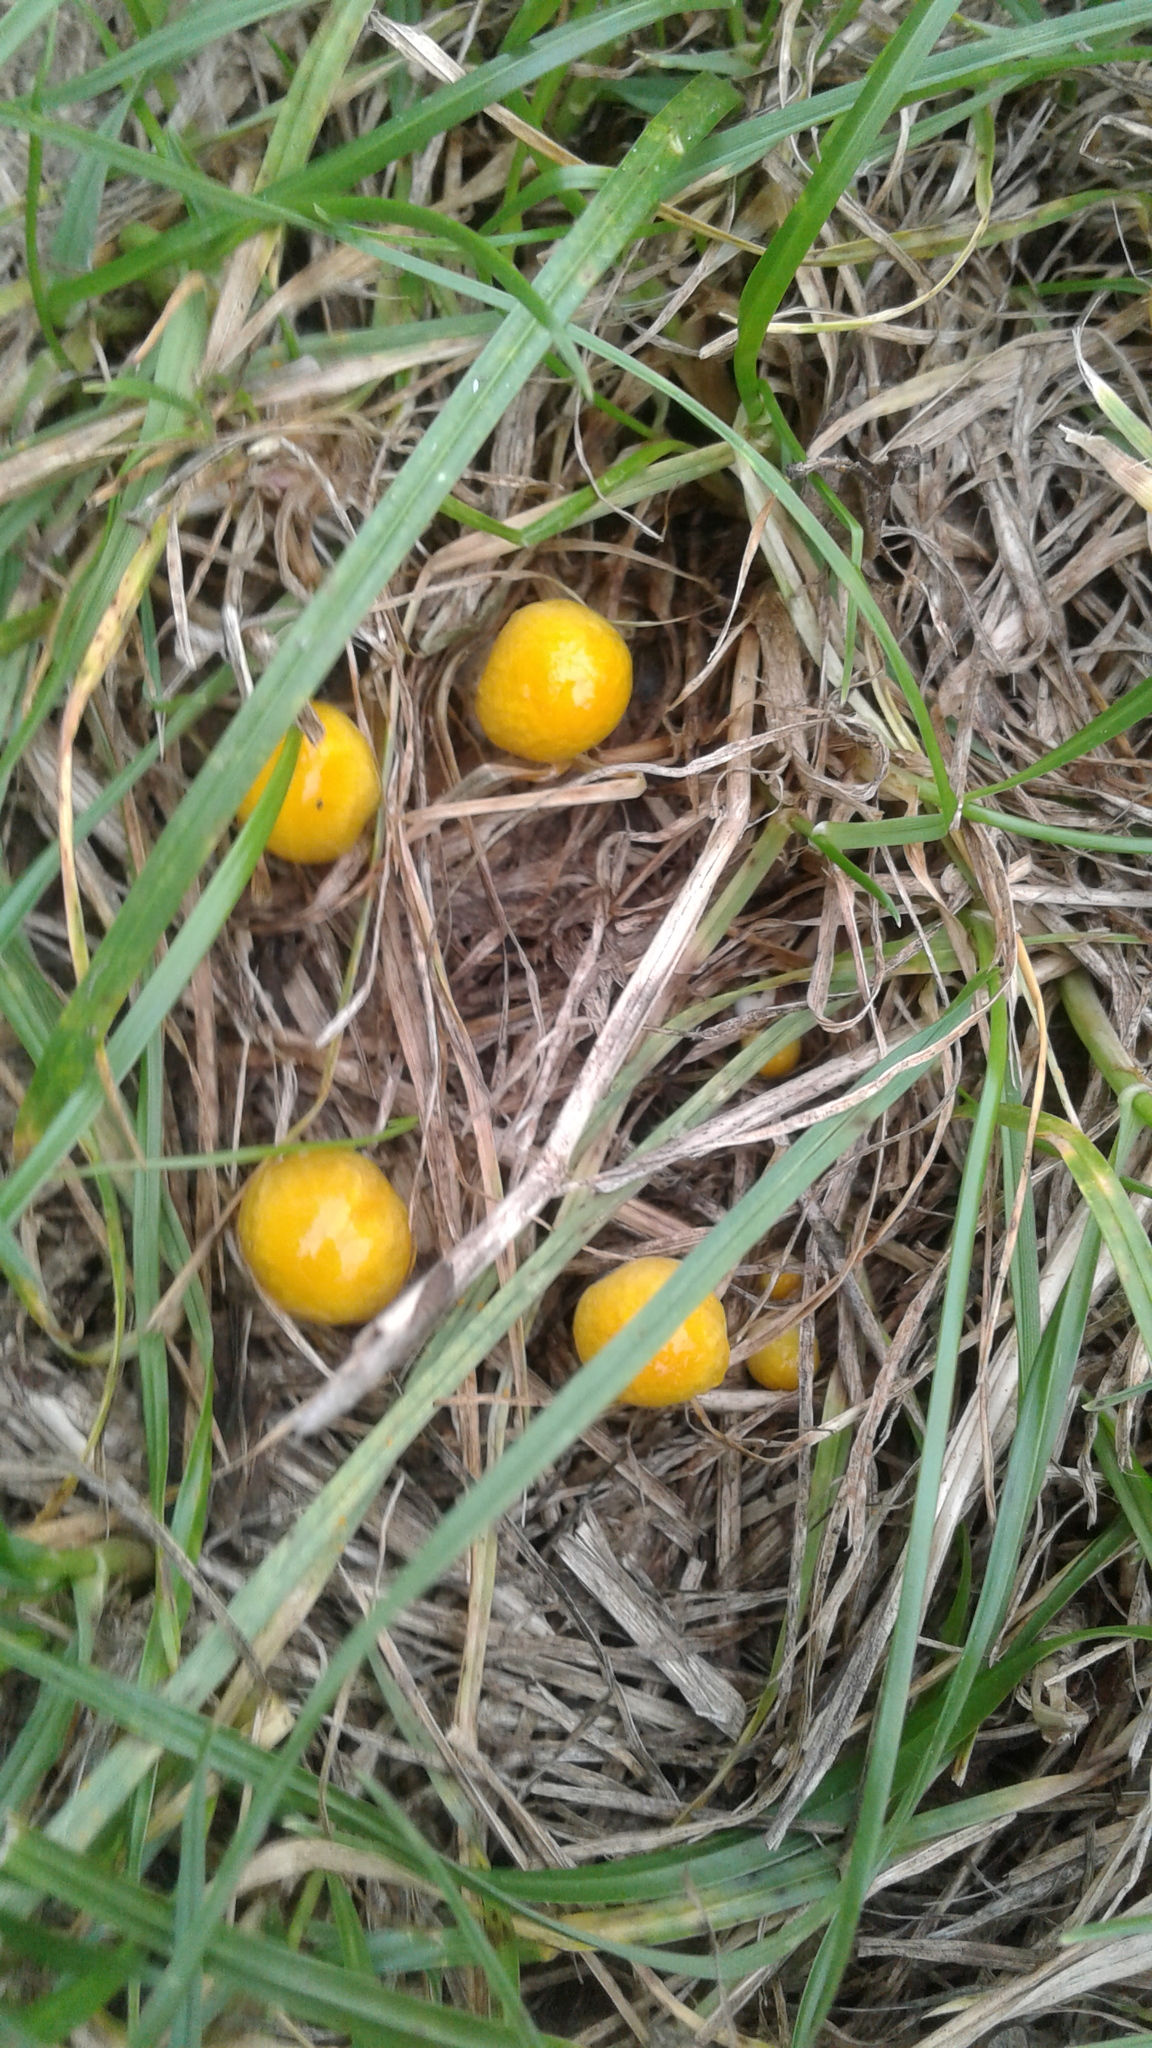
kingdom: Fungi
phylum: Basidiomycota
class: Agaricomycetes
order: Agaricales
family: Bolbitiaceae
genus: Bolbitius
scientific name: Bolbitius titubans
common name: Yellow fieldcap
